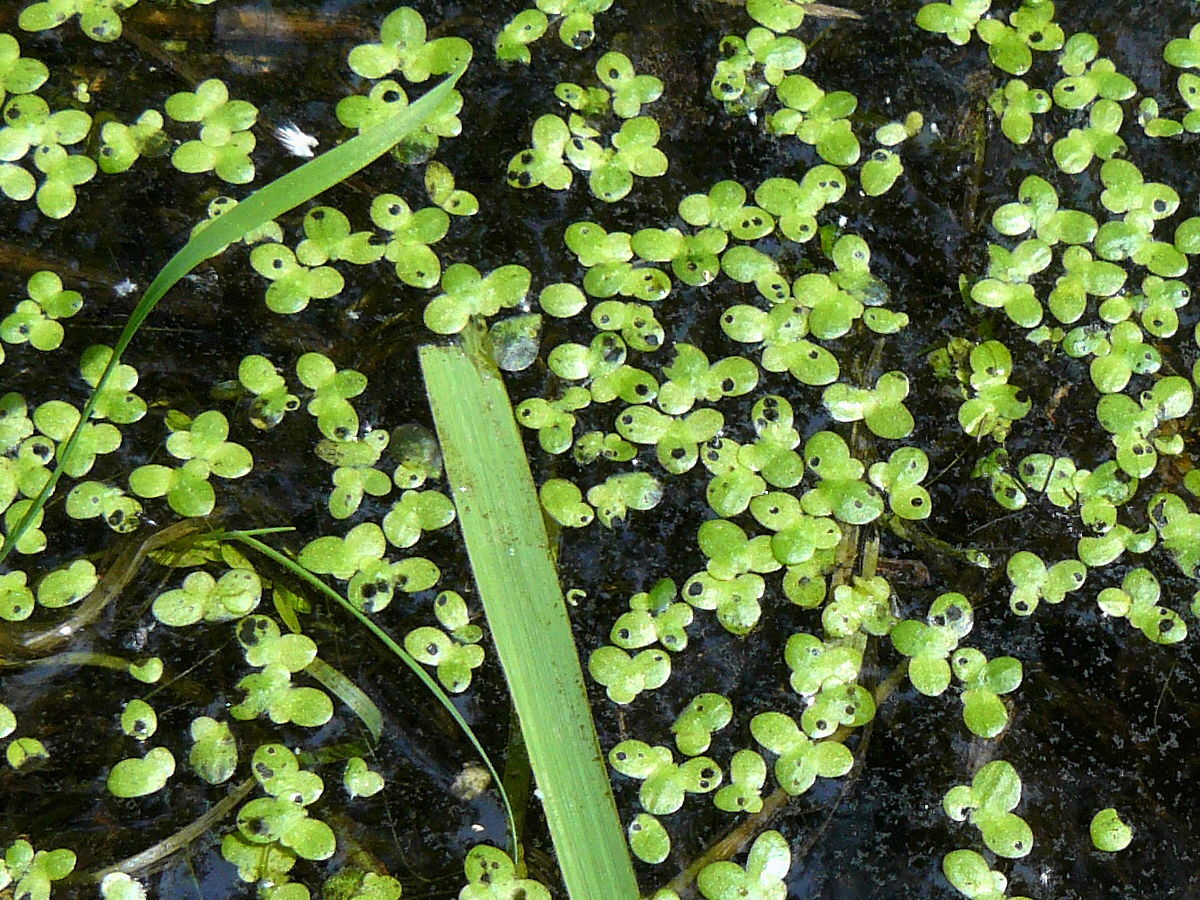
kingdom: Plantae
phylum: Tracheophyta
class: Liliopsida
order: Alismatales
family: Araceae
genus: Lemna
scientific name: Lemna minor
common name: Common duckweed
